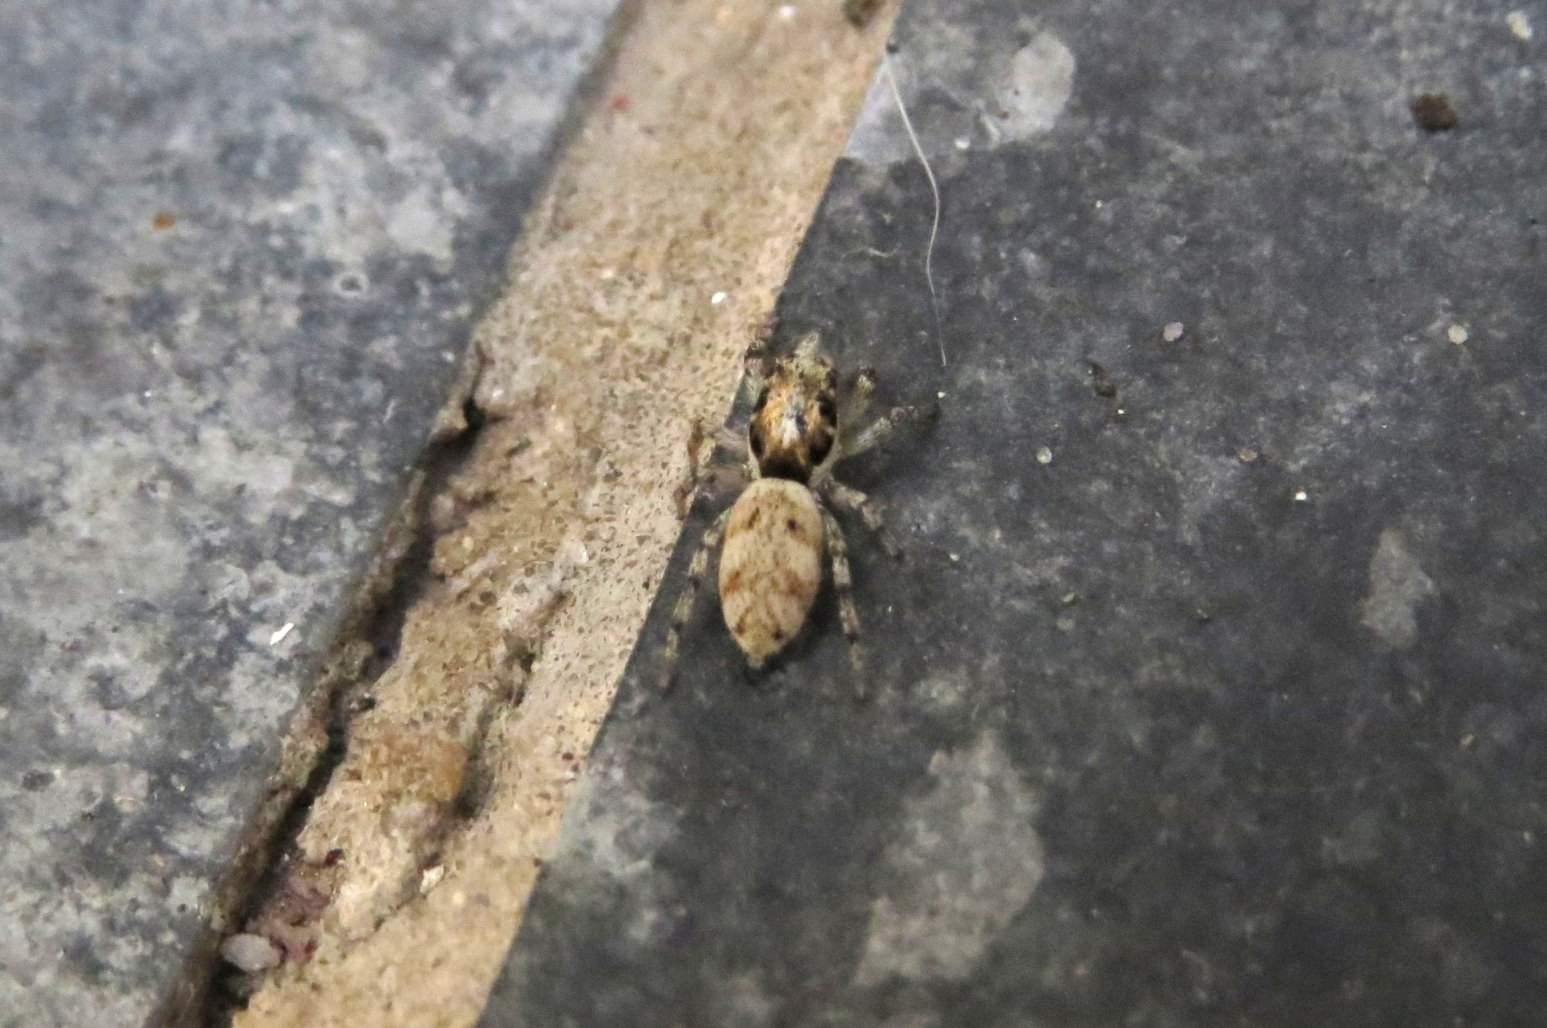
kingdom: Animalia
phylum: Arthropoda
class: Arachnida
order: Araneae
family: Salticidae
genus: Salticus
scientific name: Salticus mutabilis
